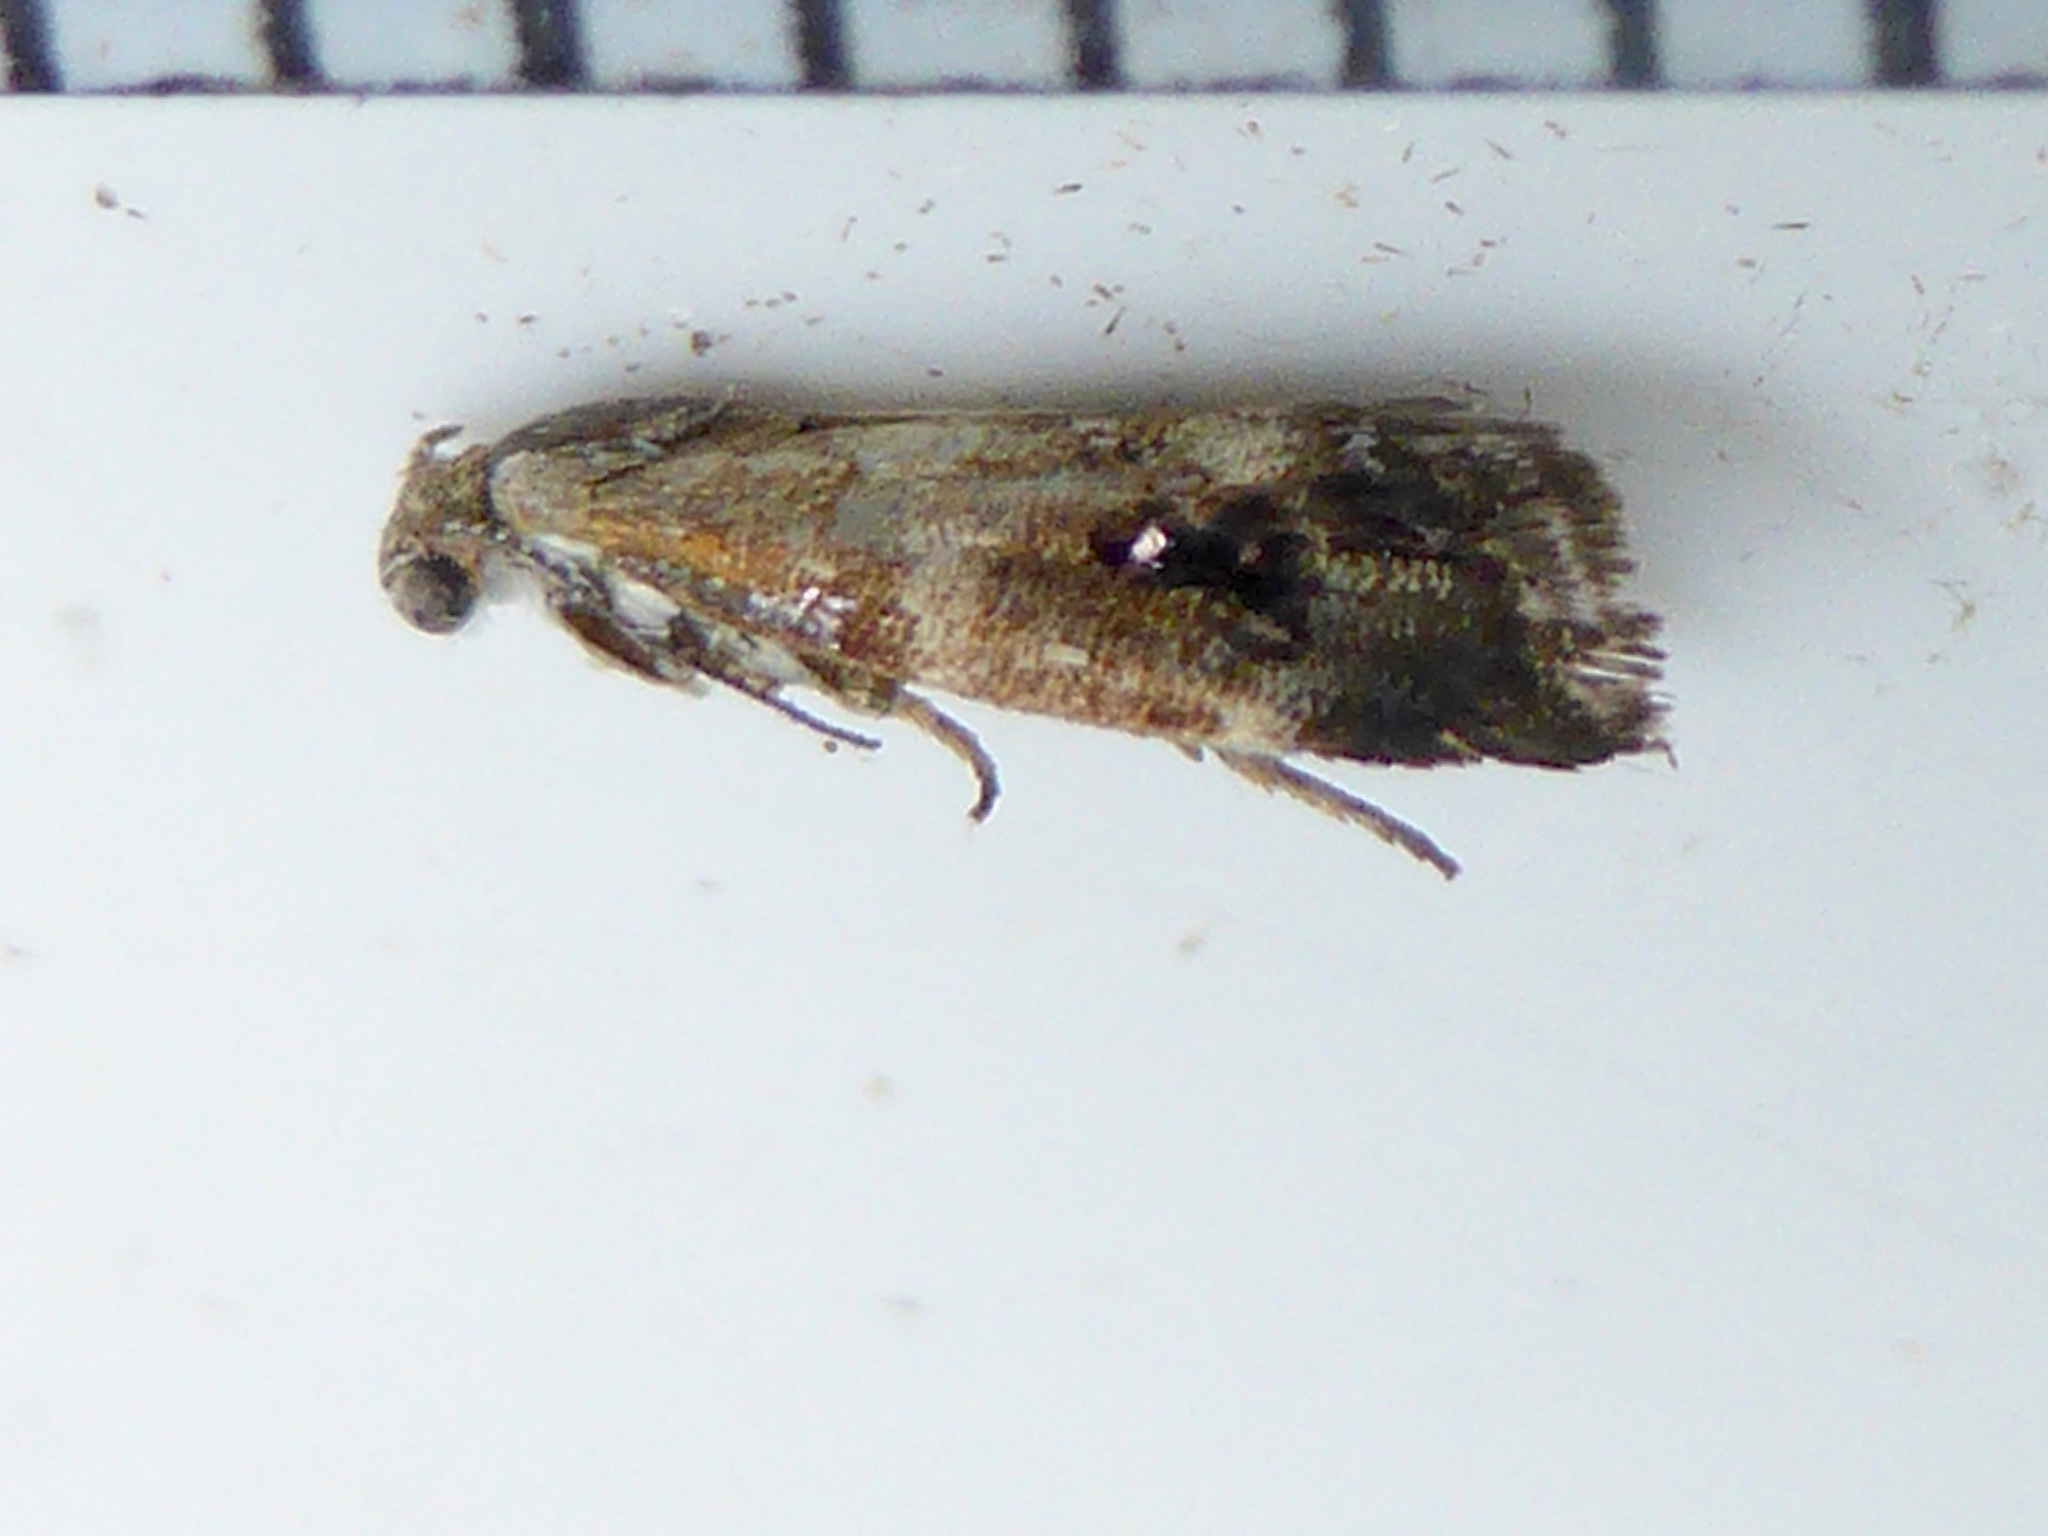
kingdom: Animalia
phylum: Arthropoda
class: Insecta
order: Lepidoptera
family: Choreutidae
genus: Tebenna
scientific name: Tebenna micalis
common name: Vagrant twitcher
